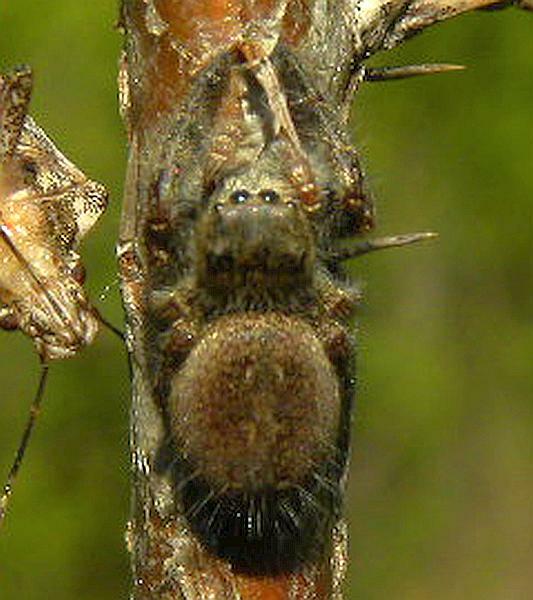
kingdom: Animalia
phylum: Arthropoda
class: Arachnida
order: Araneae
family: Salticidae
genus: Phidippus
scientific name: Phidippus princeps
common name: Grayish jumping spider
